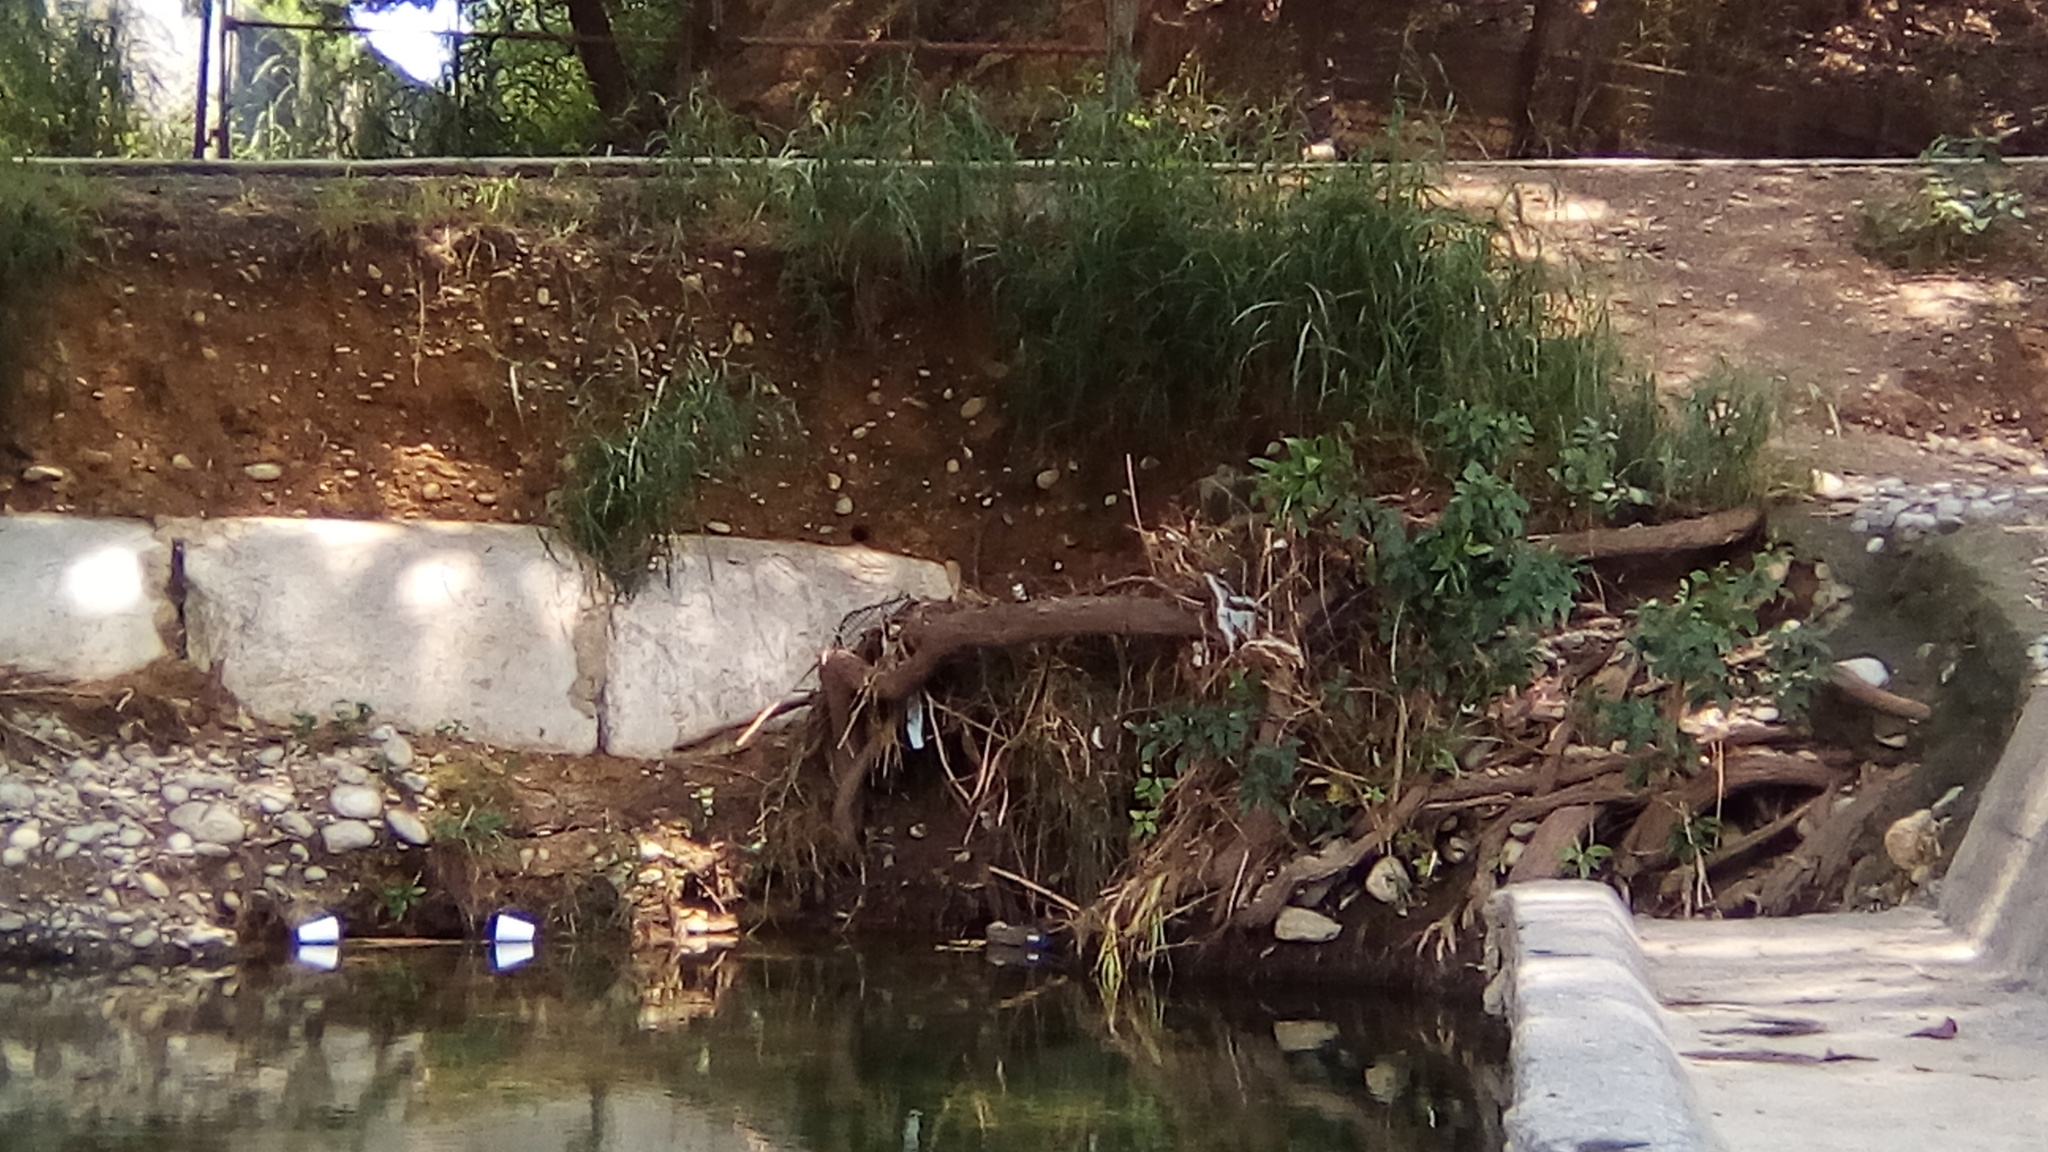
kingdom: Animalia
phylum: Chordata
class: Aves
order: Coraciiformes
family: Alcedinidae
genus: Chloroceryle
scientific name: Chloroceryle americana
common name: Green kingfisher
